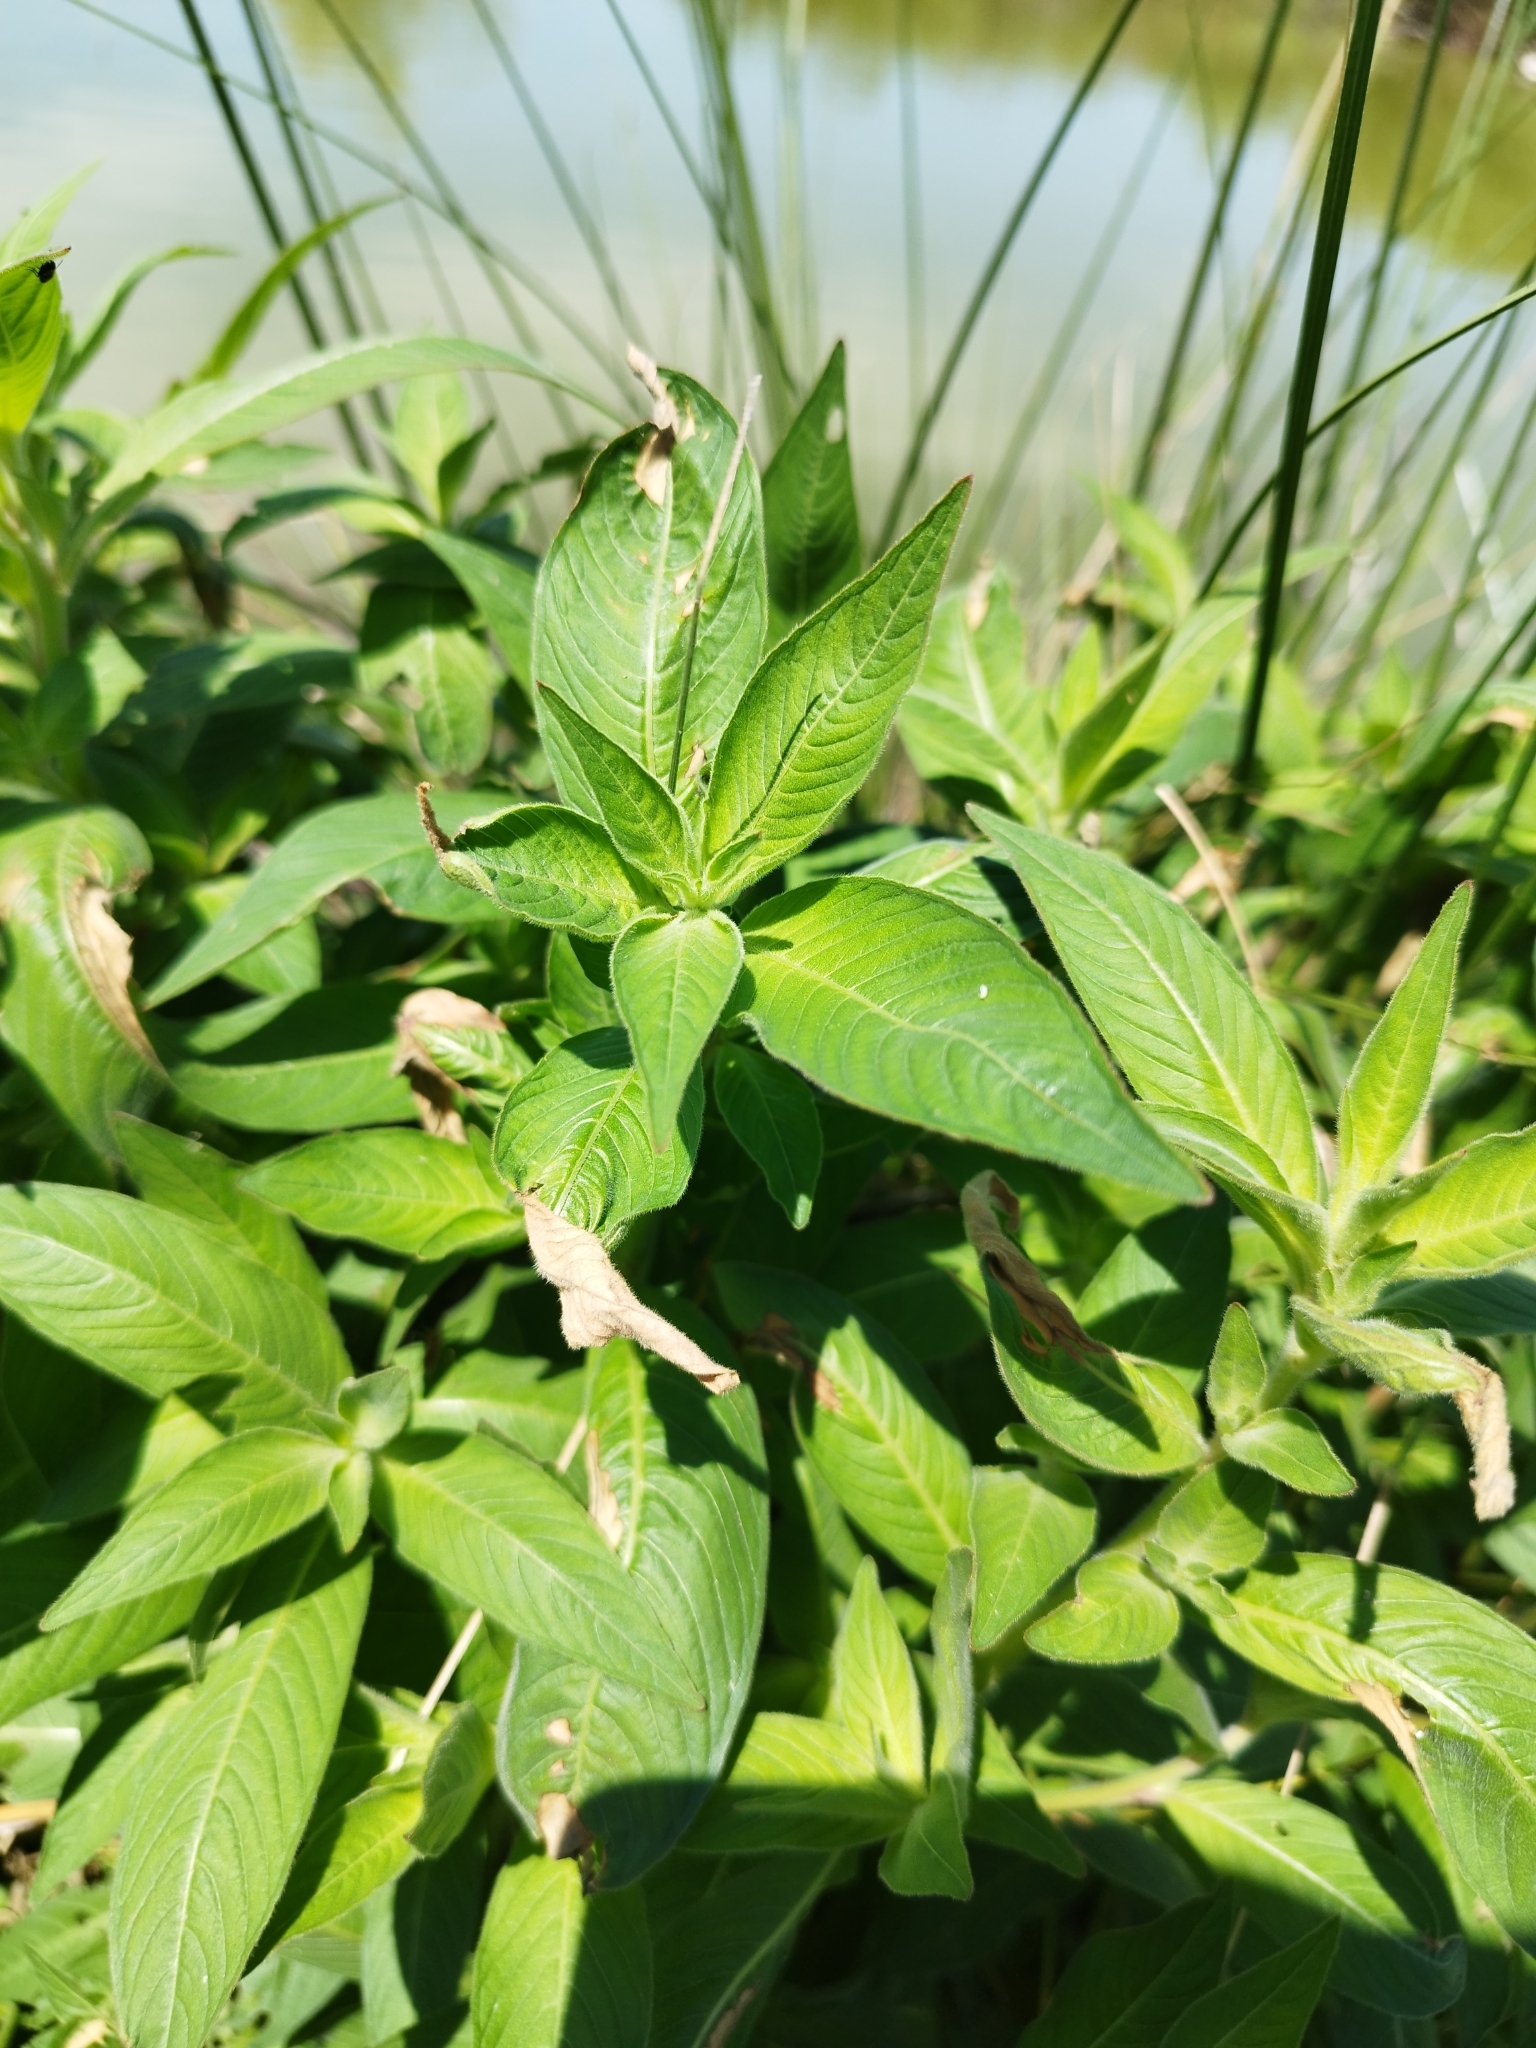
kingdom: Plantae
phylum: Tracheophyta
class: Magnoliopsida
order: Myrtales
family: Onagraceae
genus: Ludwigia
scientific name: Ludwigia octovalvis
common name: Water-primrose
